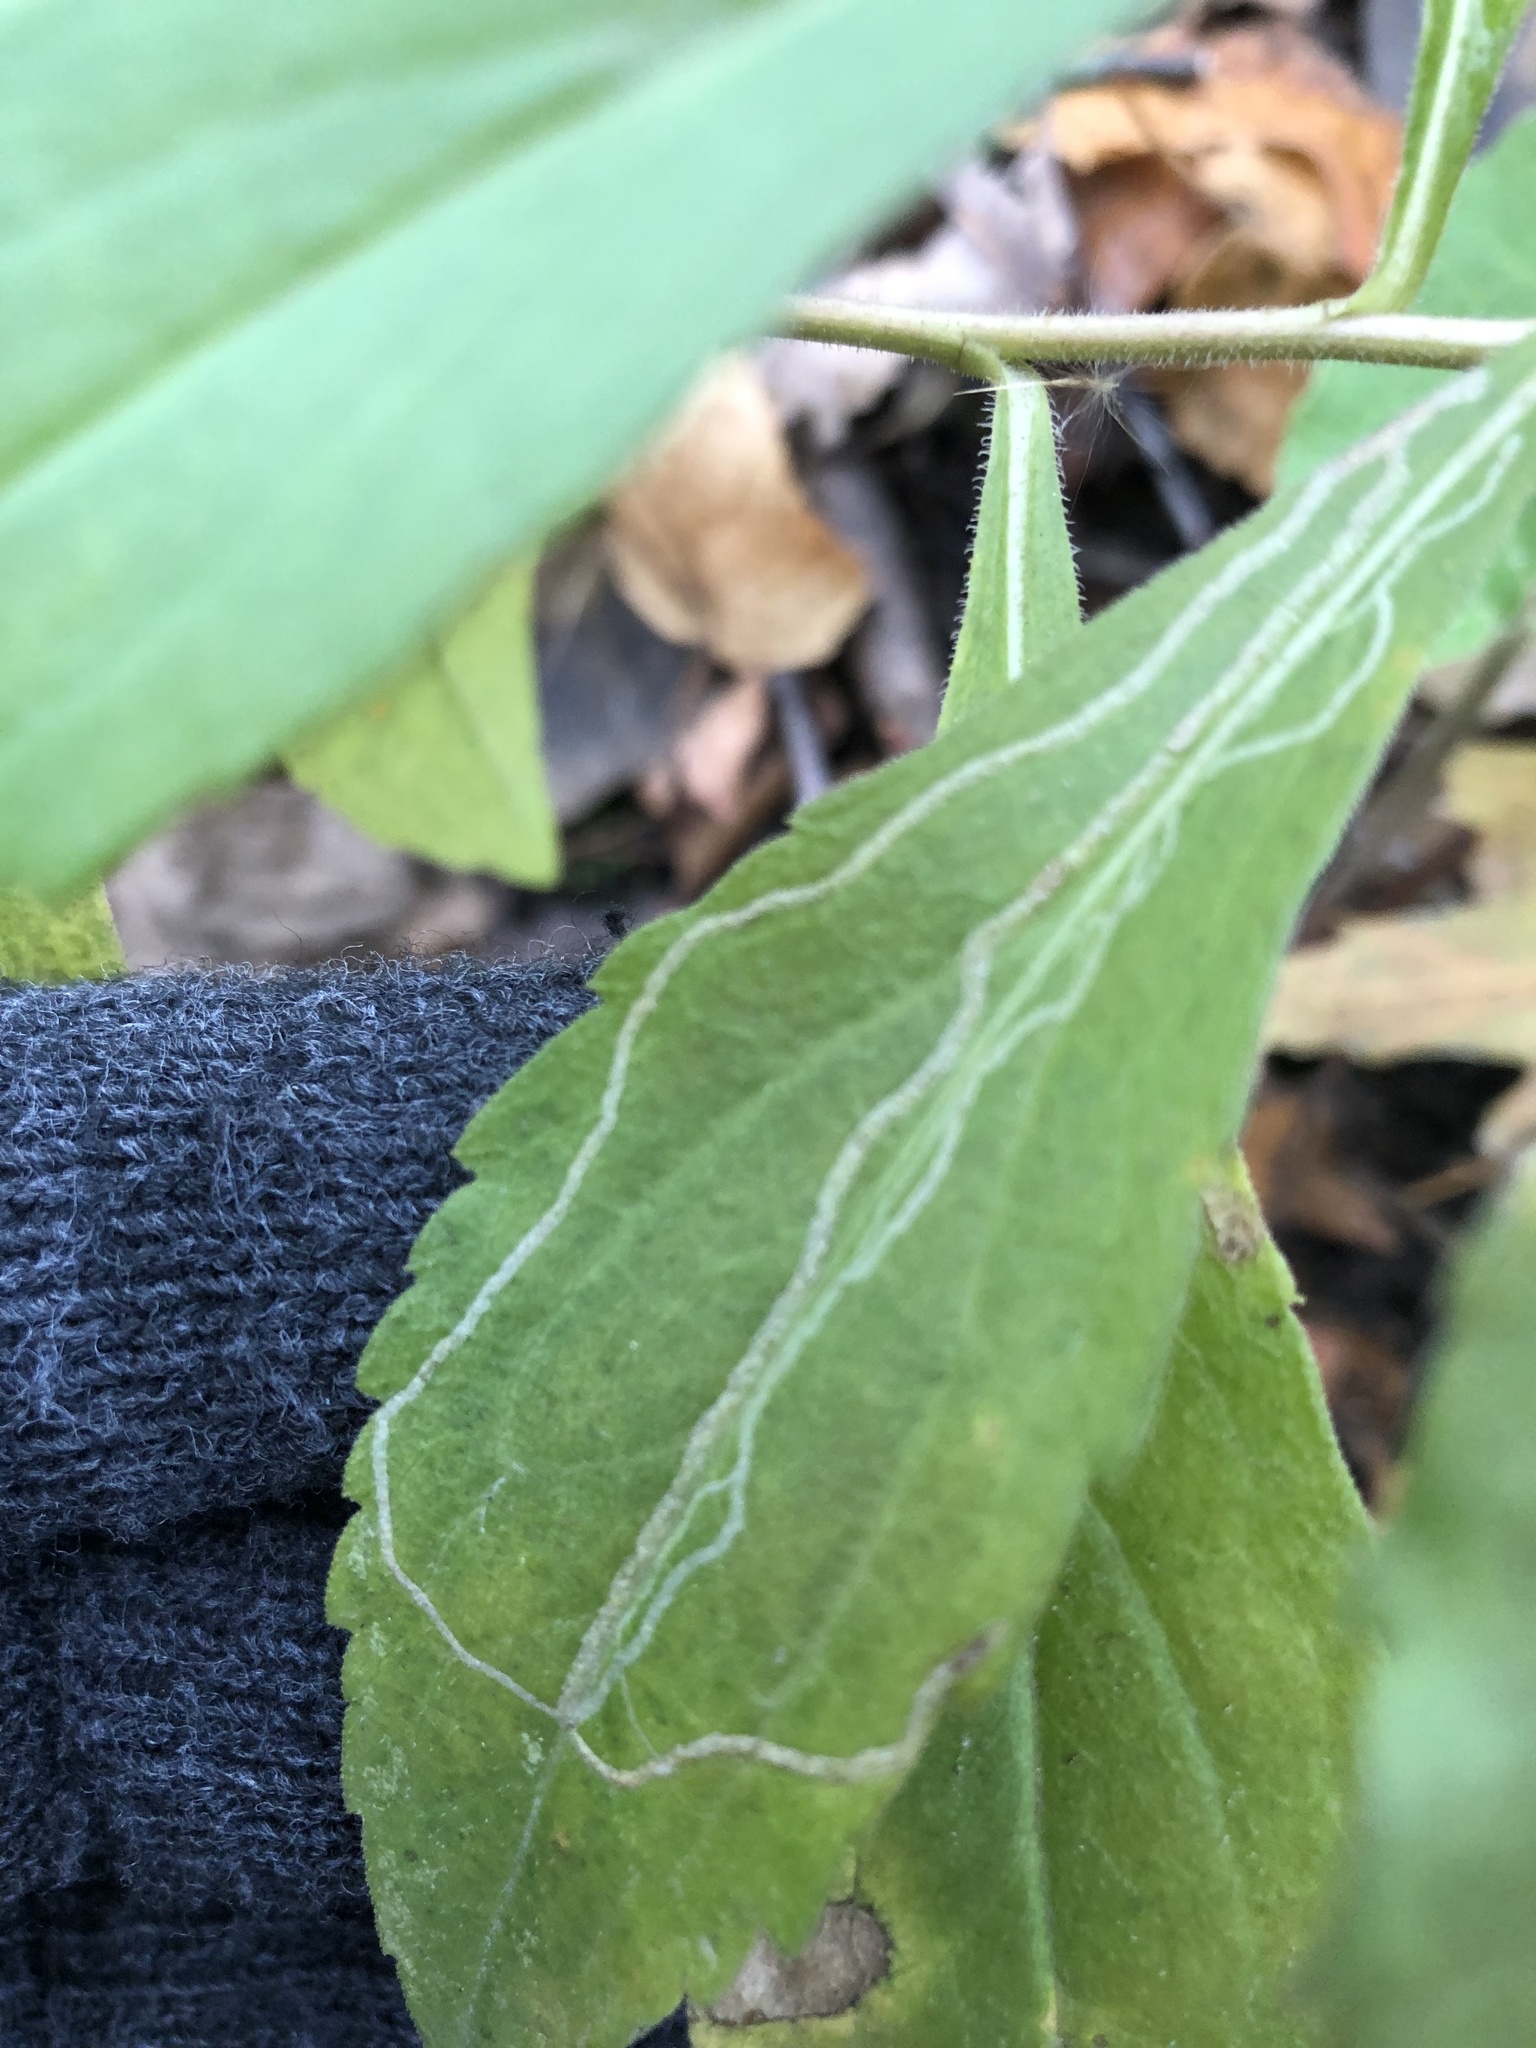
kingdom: Animalia
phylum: Arthropoda
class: Insecta
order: Diptera
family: Agromyzidae
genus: Ophiomyia
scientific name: Ophiomyia maura
